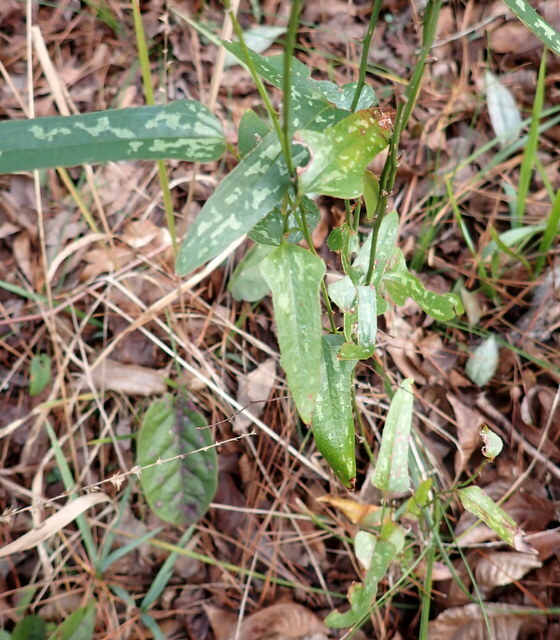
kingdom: Plantae
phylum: Tracheophyta
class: Liliopsida
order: Liliales
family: Smilacaceae
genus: Smilax
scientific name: Smilax bona-nox
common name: Catbrier
